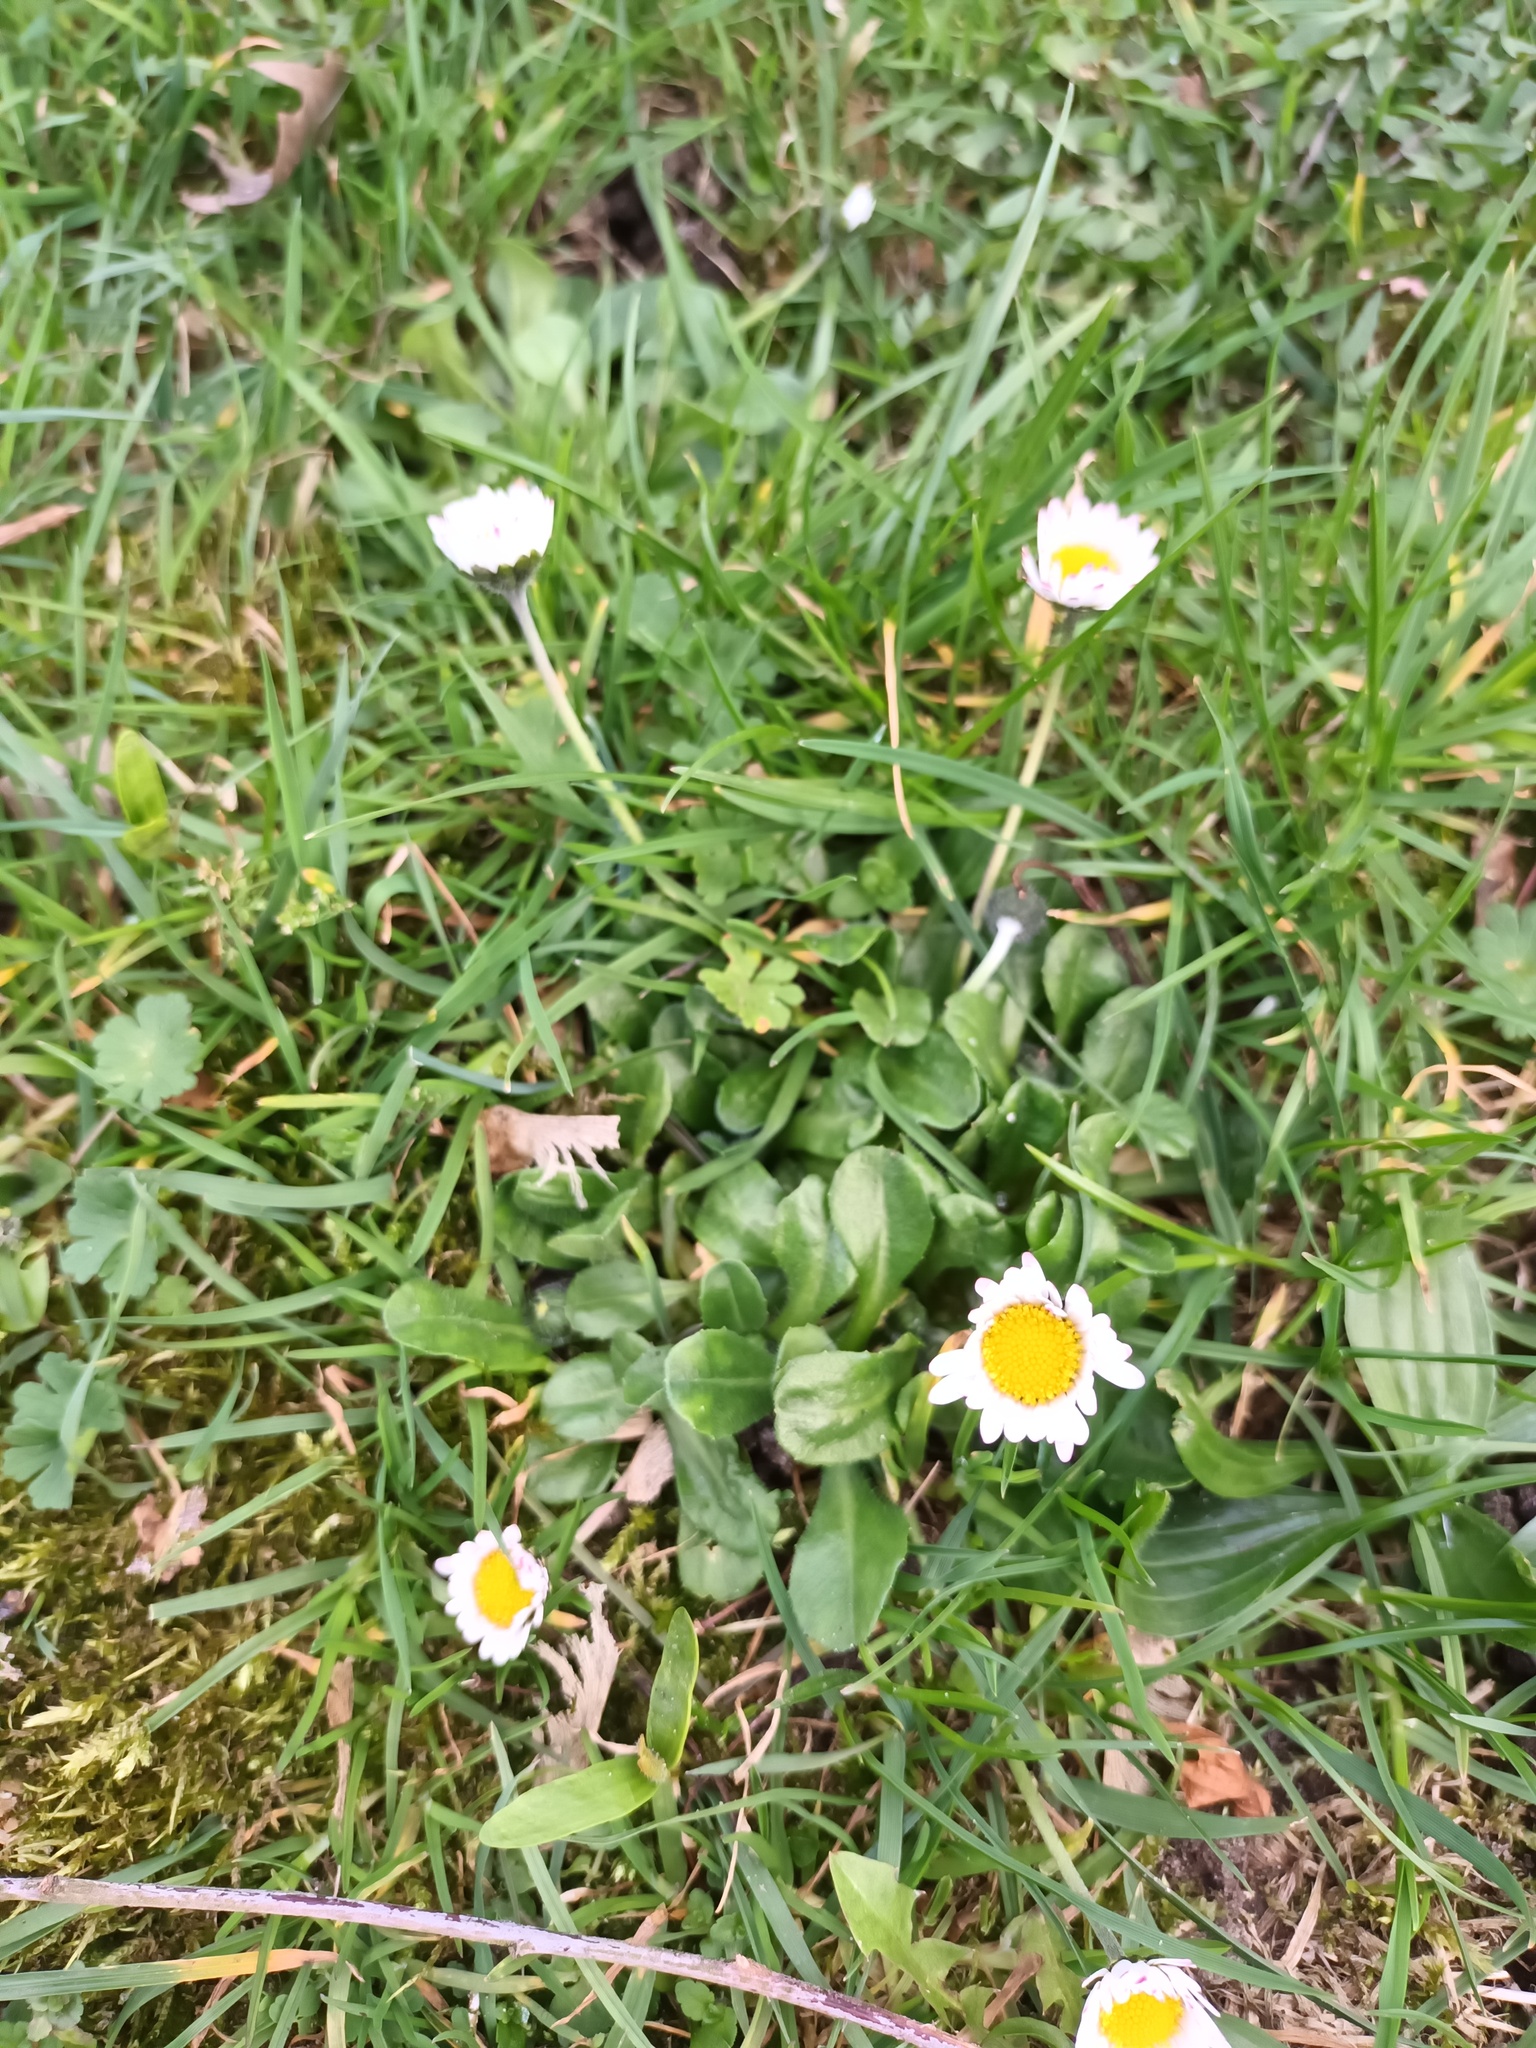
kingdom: Plantae
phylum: Tracheophyta
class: Magnoliopsida
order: Asterales
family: Asteraceae
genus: Bellis
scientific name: Bellis perennis
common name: Lawndaisy
